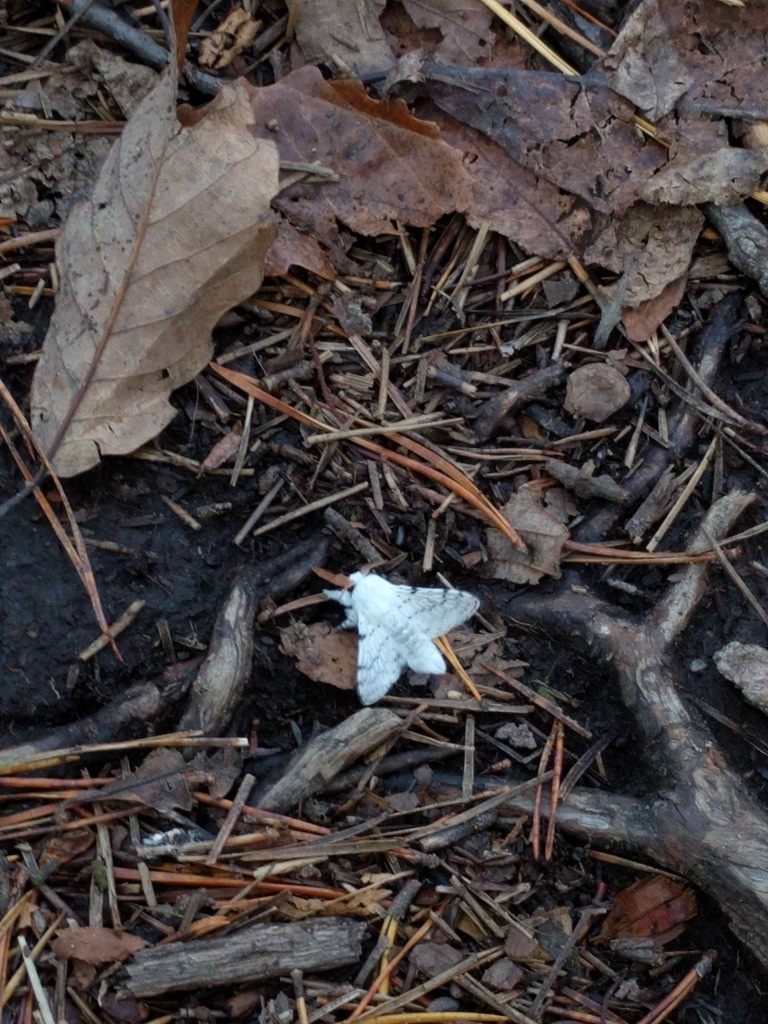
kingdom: Animalia
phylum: Arthropoda
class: Insecta
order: Lepidoptera
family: Lasiocampidae
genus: Artace
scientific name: Artace cribrarius
